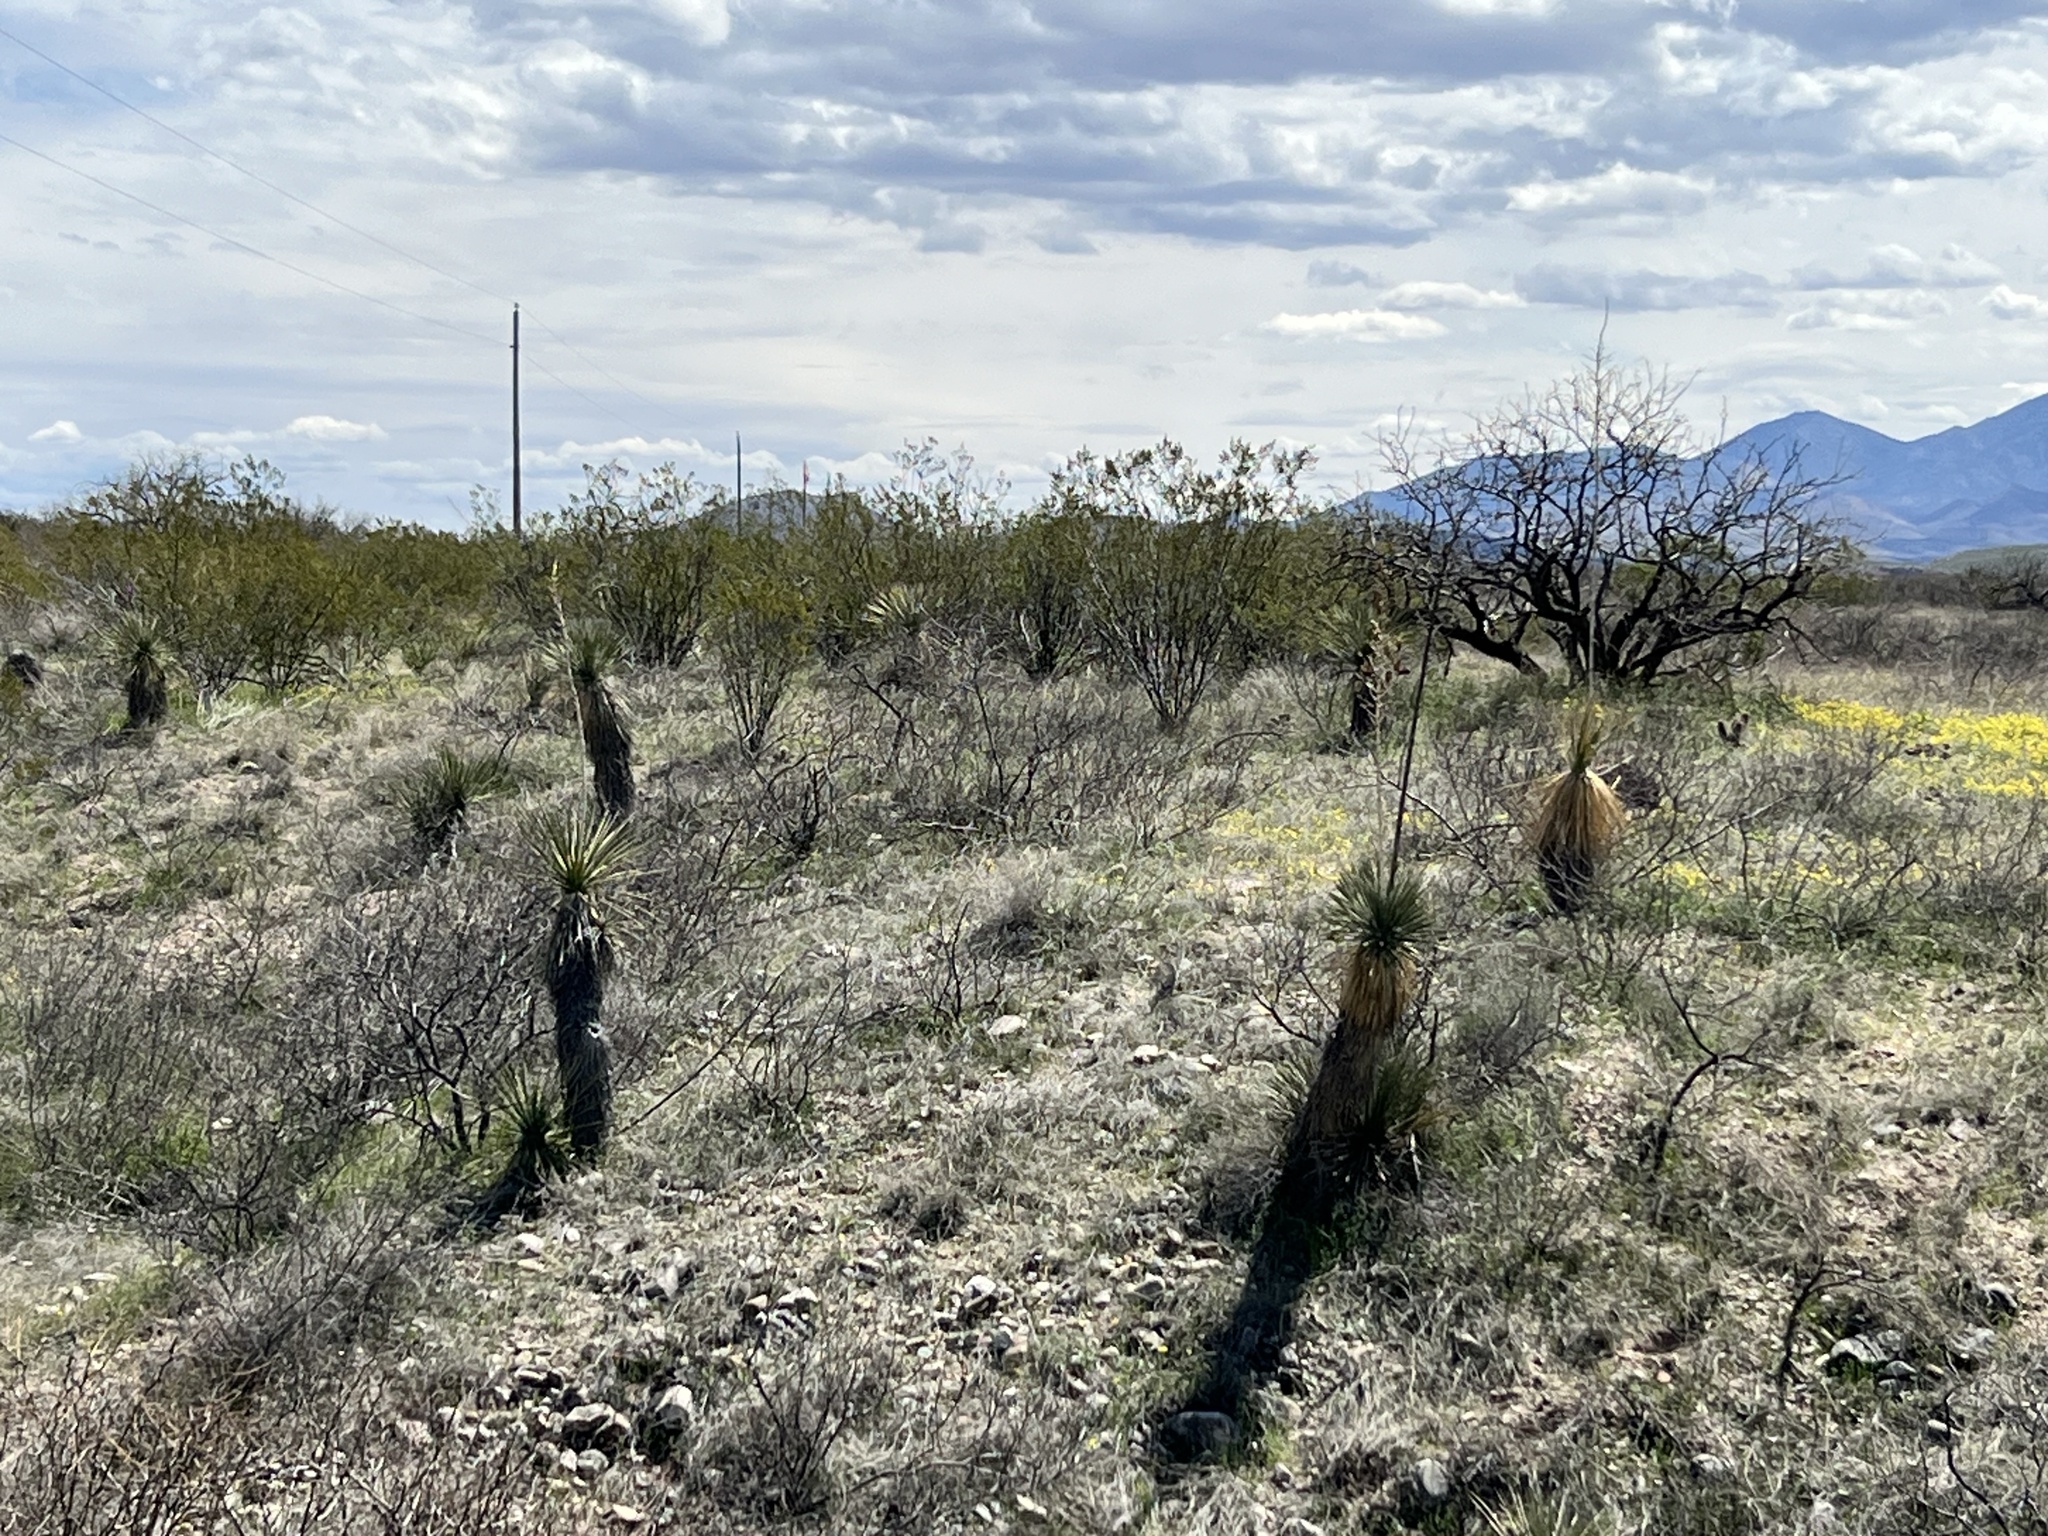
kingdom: Plantae
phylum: Tracheophyta
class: Liliopsida
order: Asparagales
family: Asparagaceae
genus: Yucca
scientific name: Yucca elata
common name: Palmella
